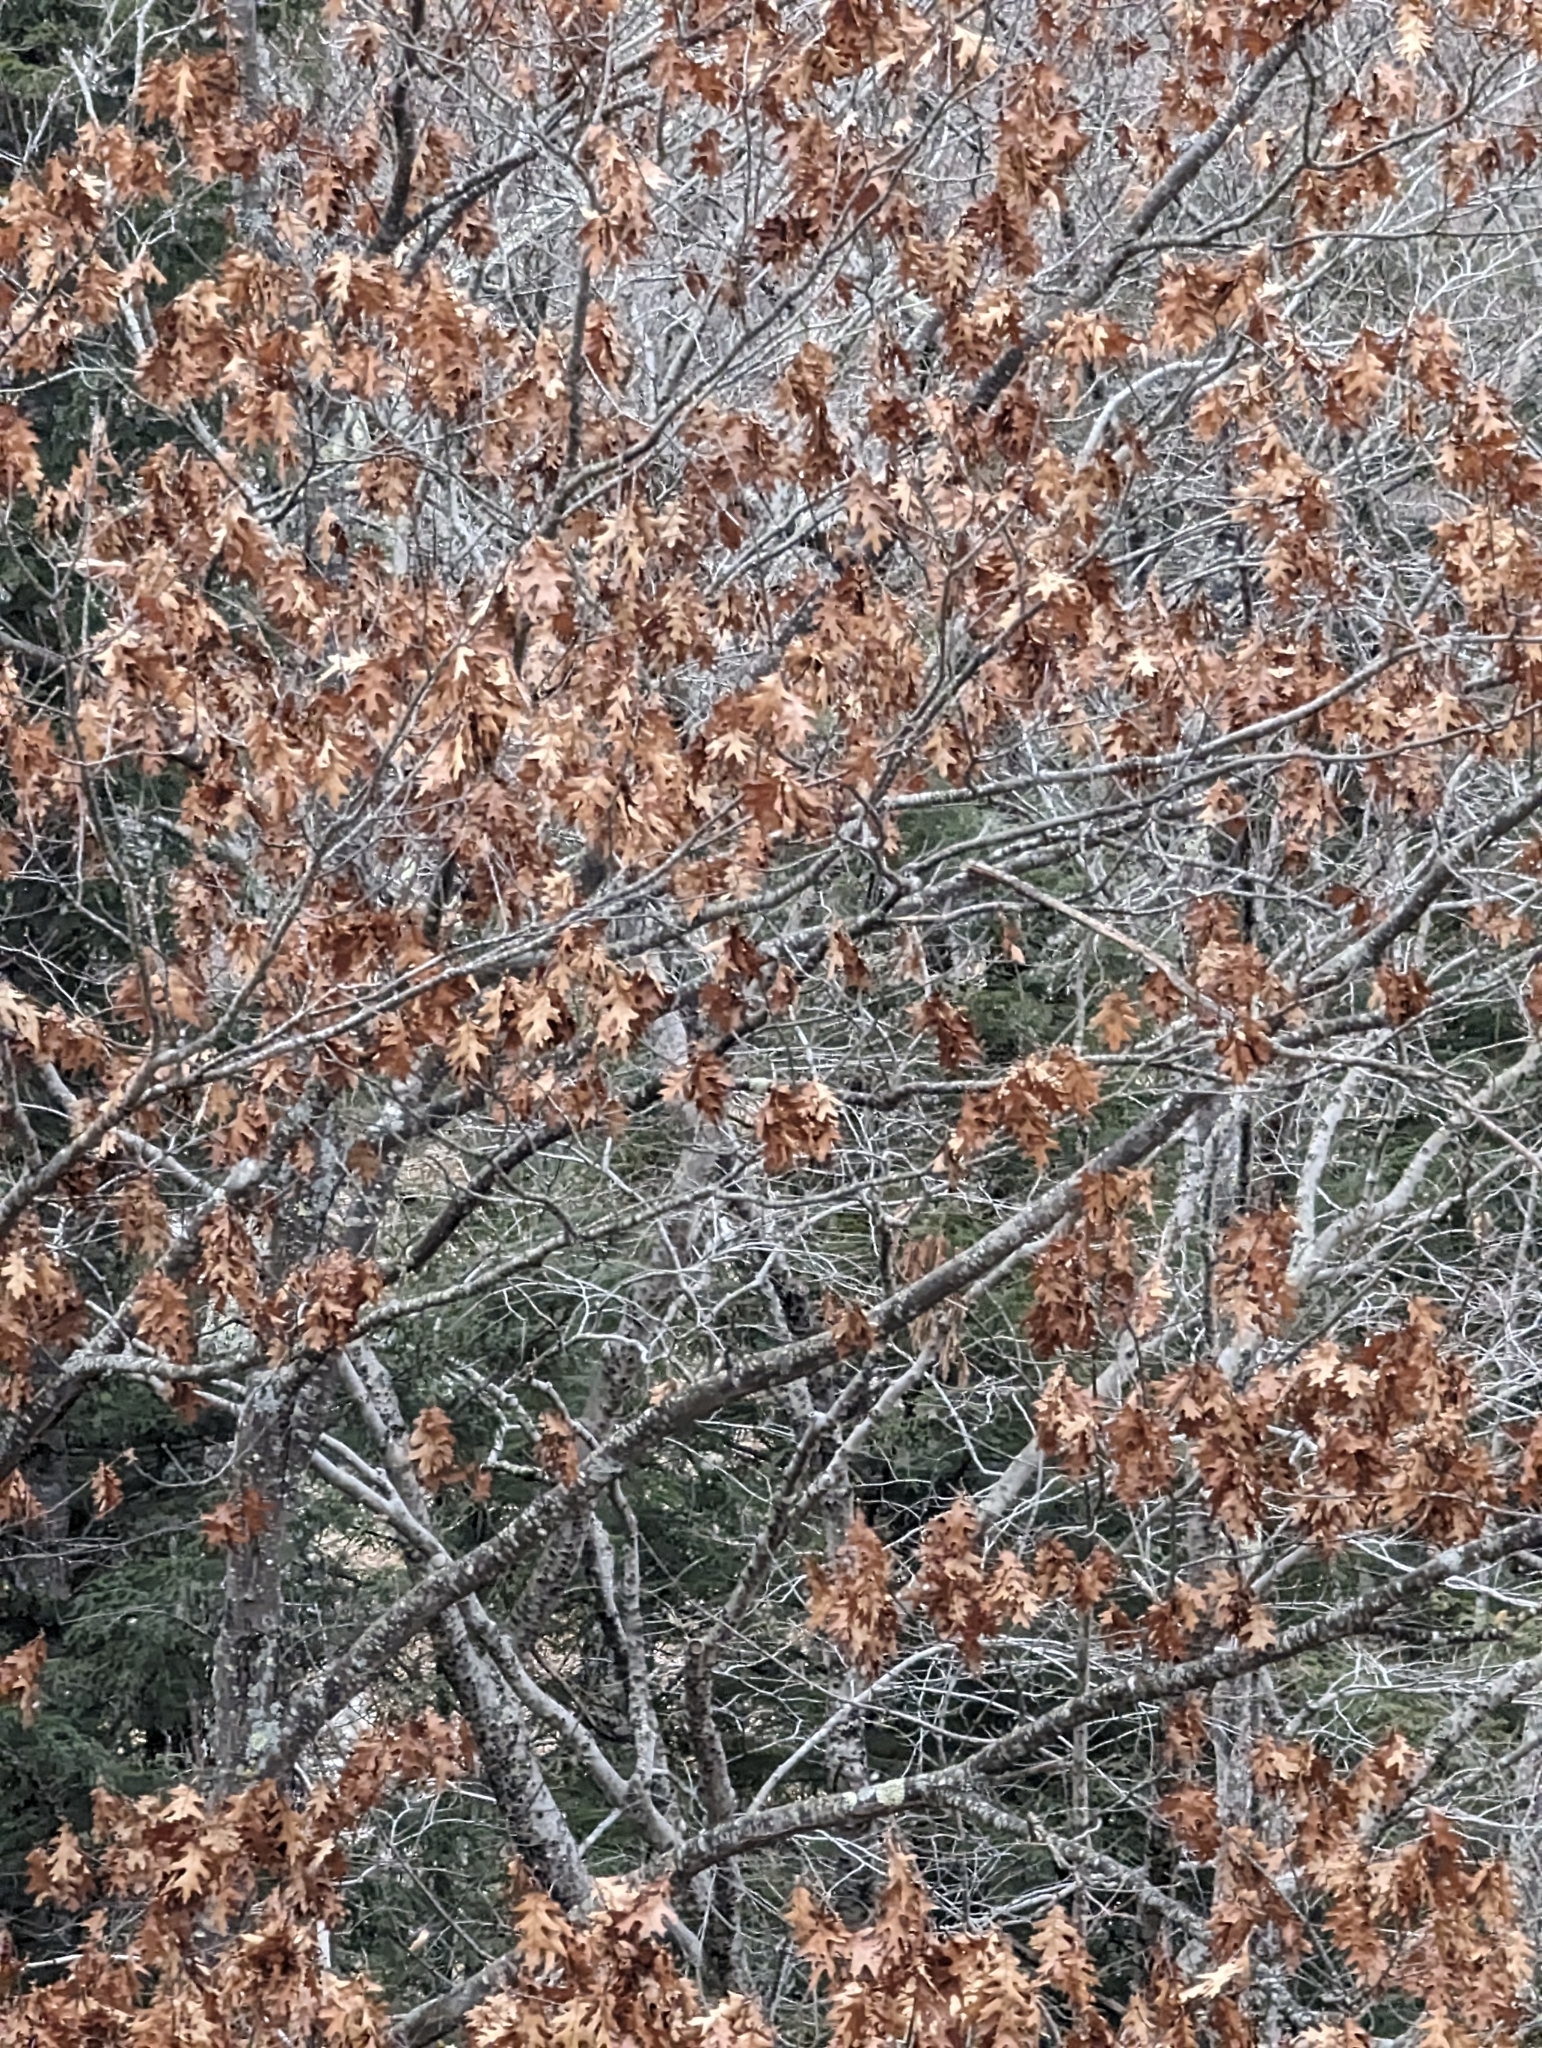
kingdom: Plantae
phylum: Tracheophyta
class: Magnoliopsida
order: Fagales
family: Fagaceae
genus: Quercus
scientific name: Quercus rubra
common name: Red oak
